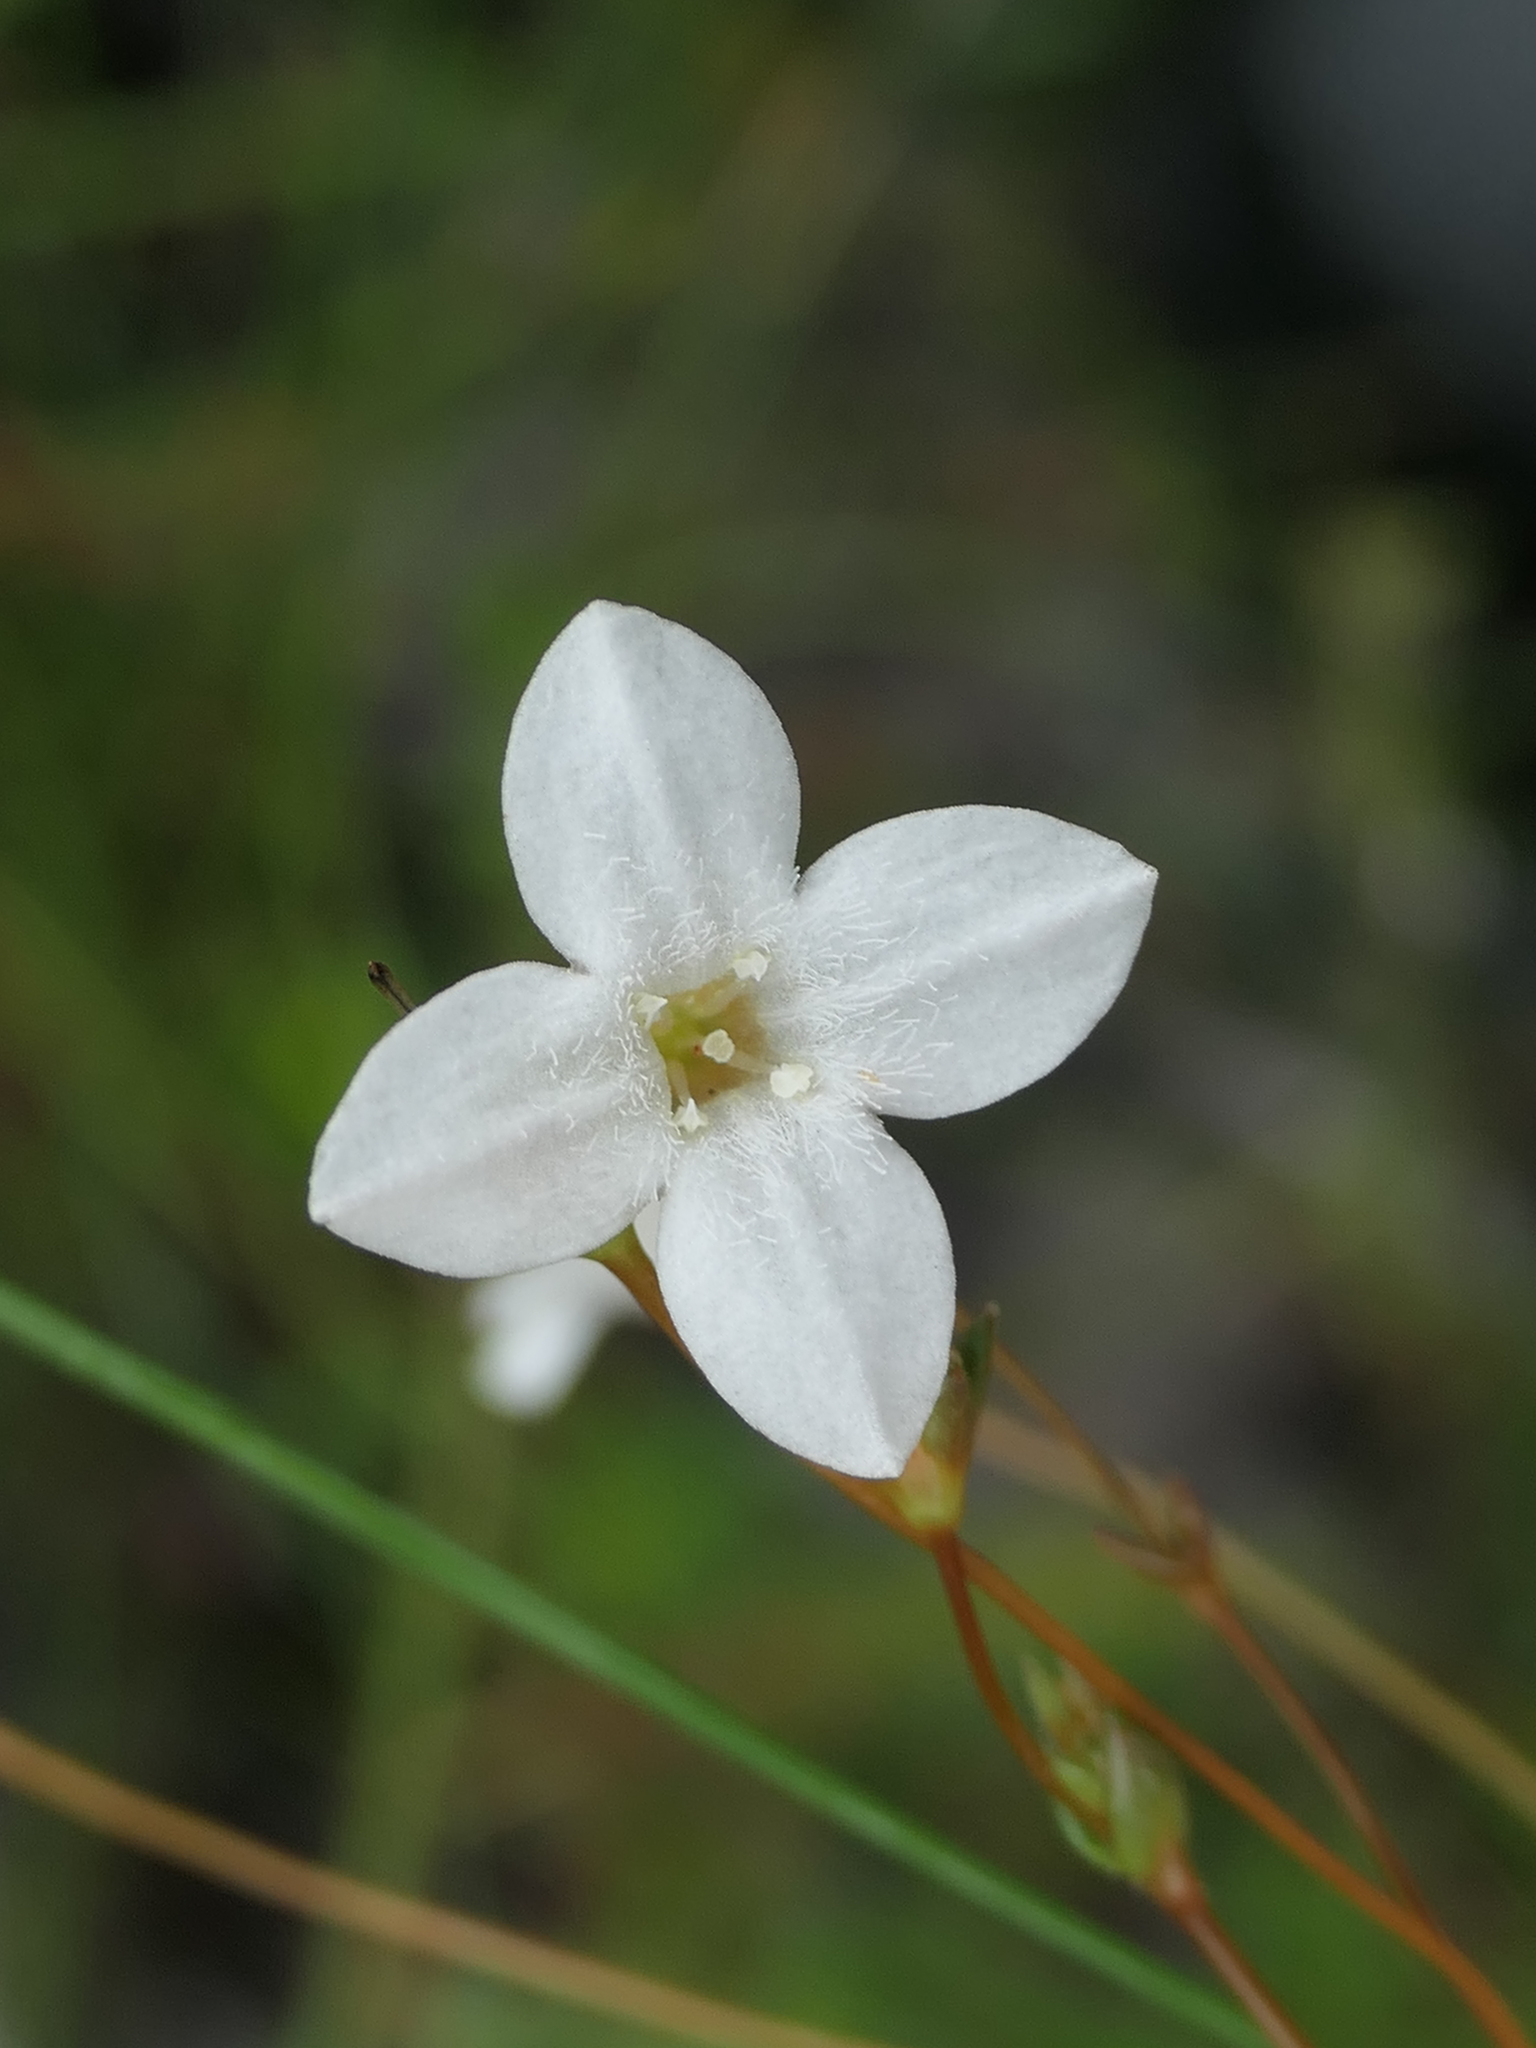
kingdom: Plantae
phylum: Tracheophyta
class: Magnoliopsida
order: Gentianales
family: Loganiaceae
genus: Mitrasacme
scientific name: Mitrasacme polymorpha
